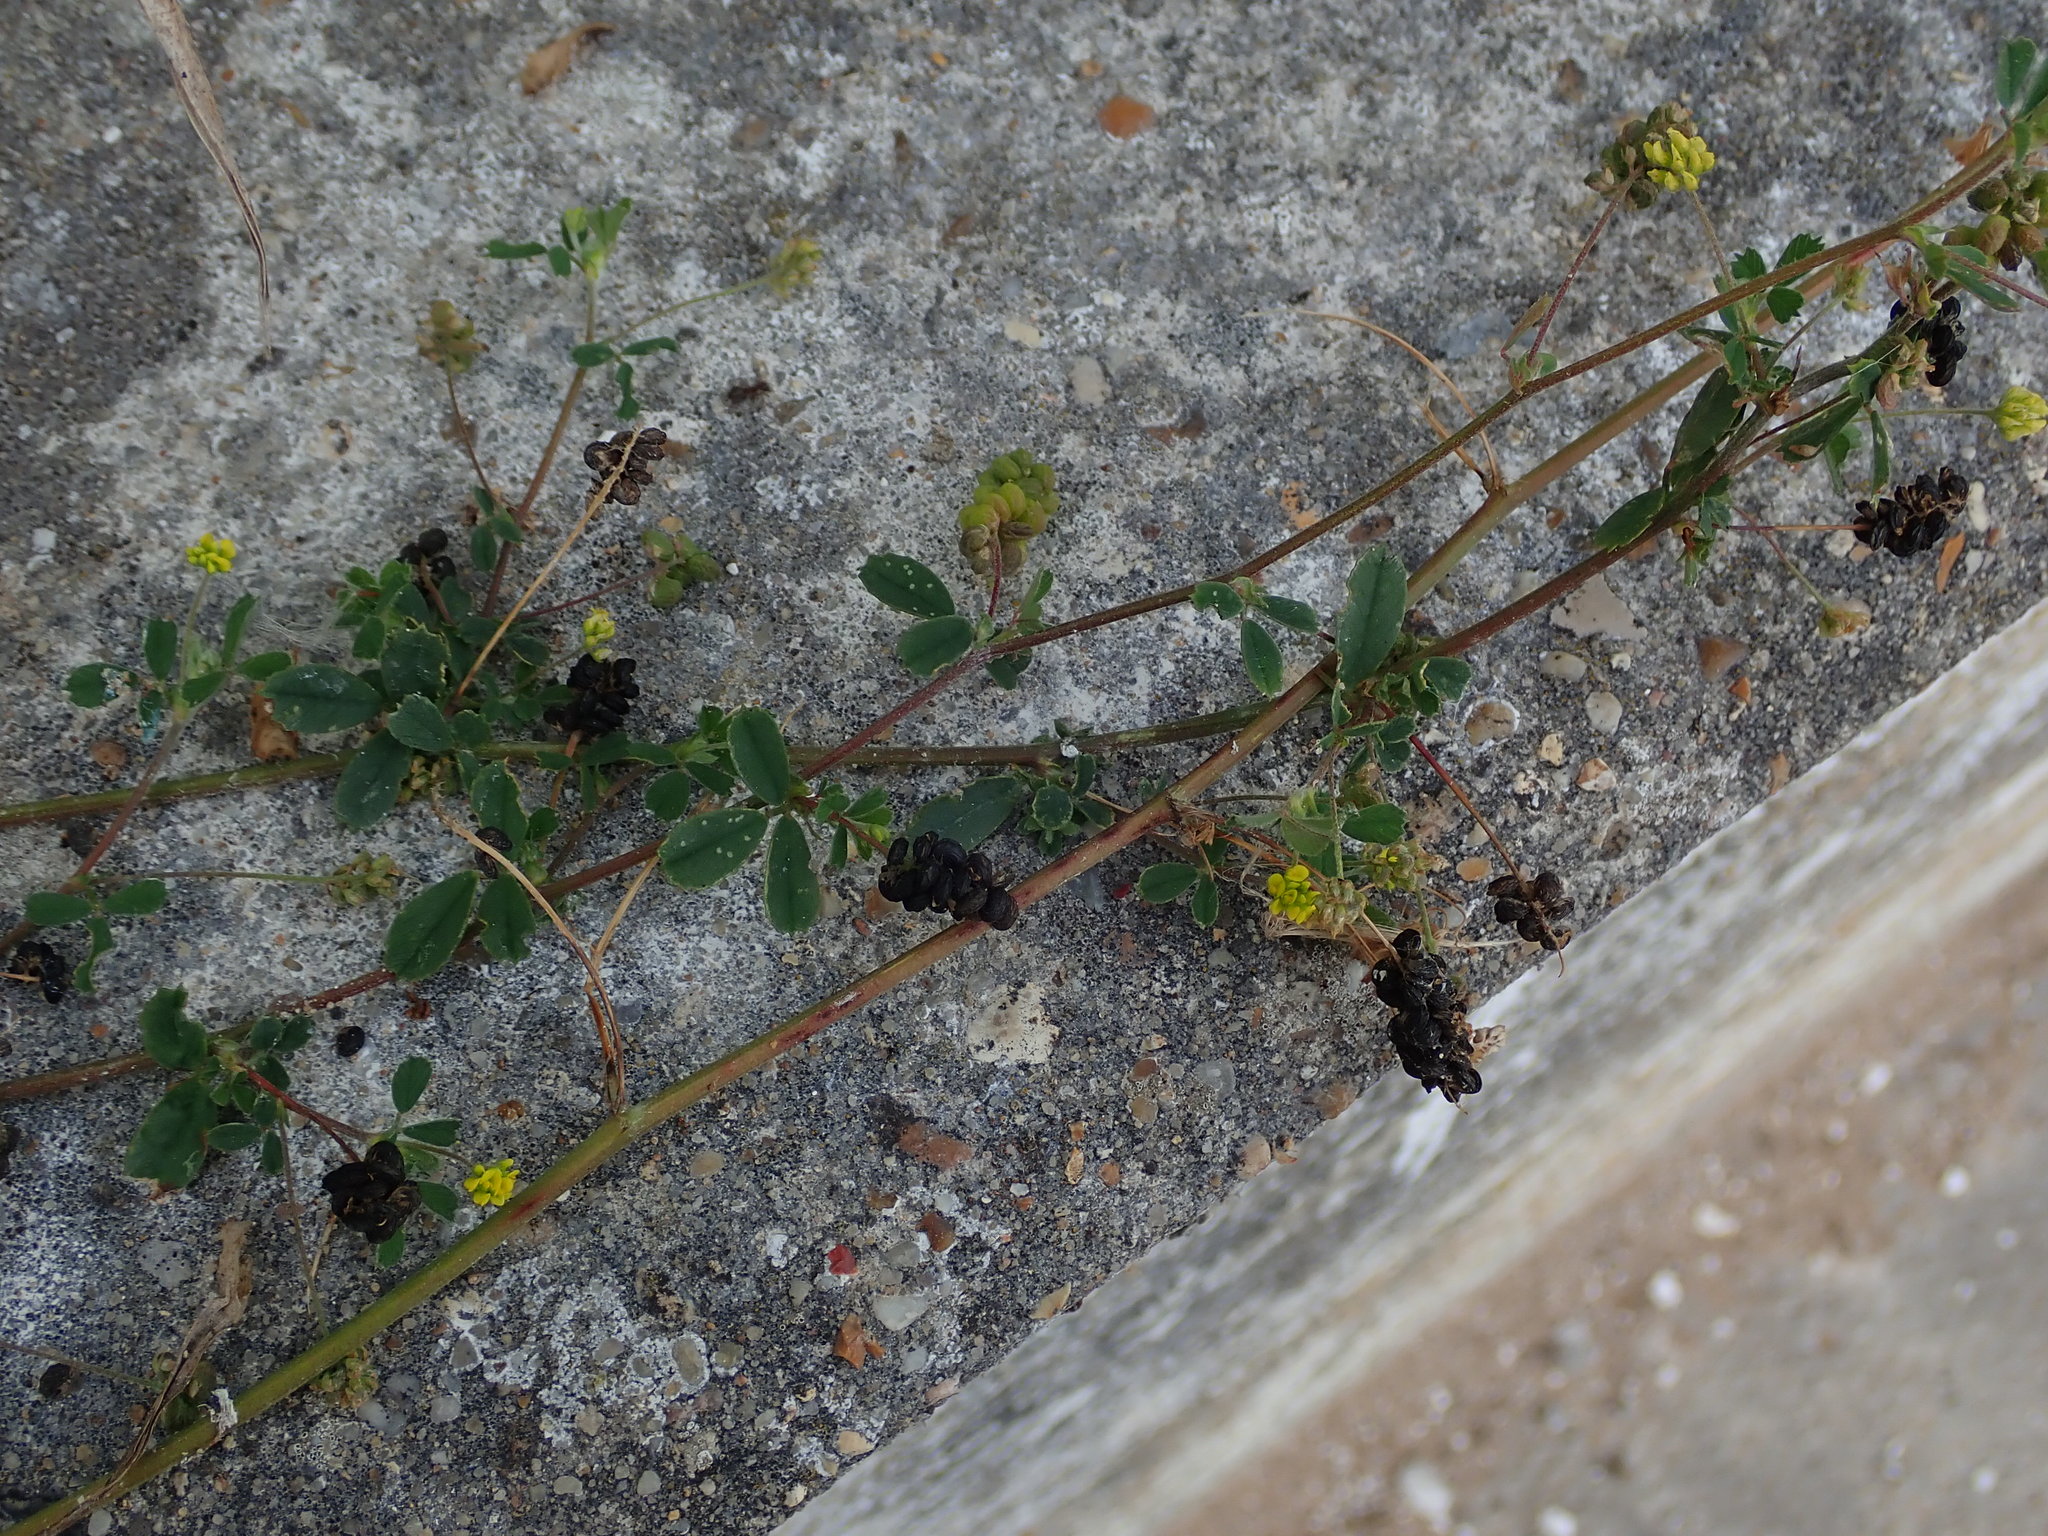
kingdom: Plantae
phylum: Tracheophyta
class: Magnoliopsida
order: Fabales
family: Fabaceae
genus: Medicago
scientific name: Medicago lupulina
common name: Black medick
